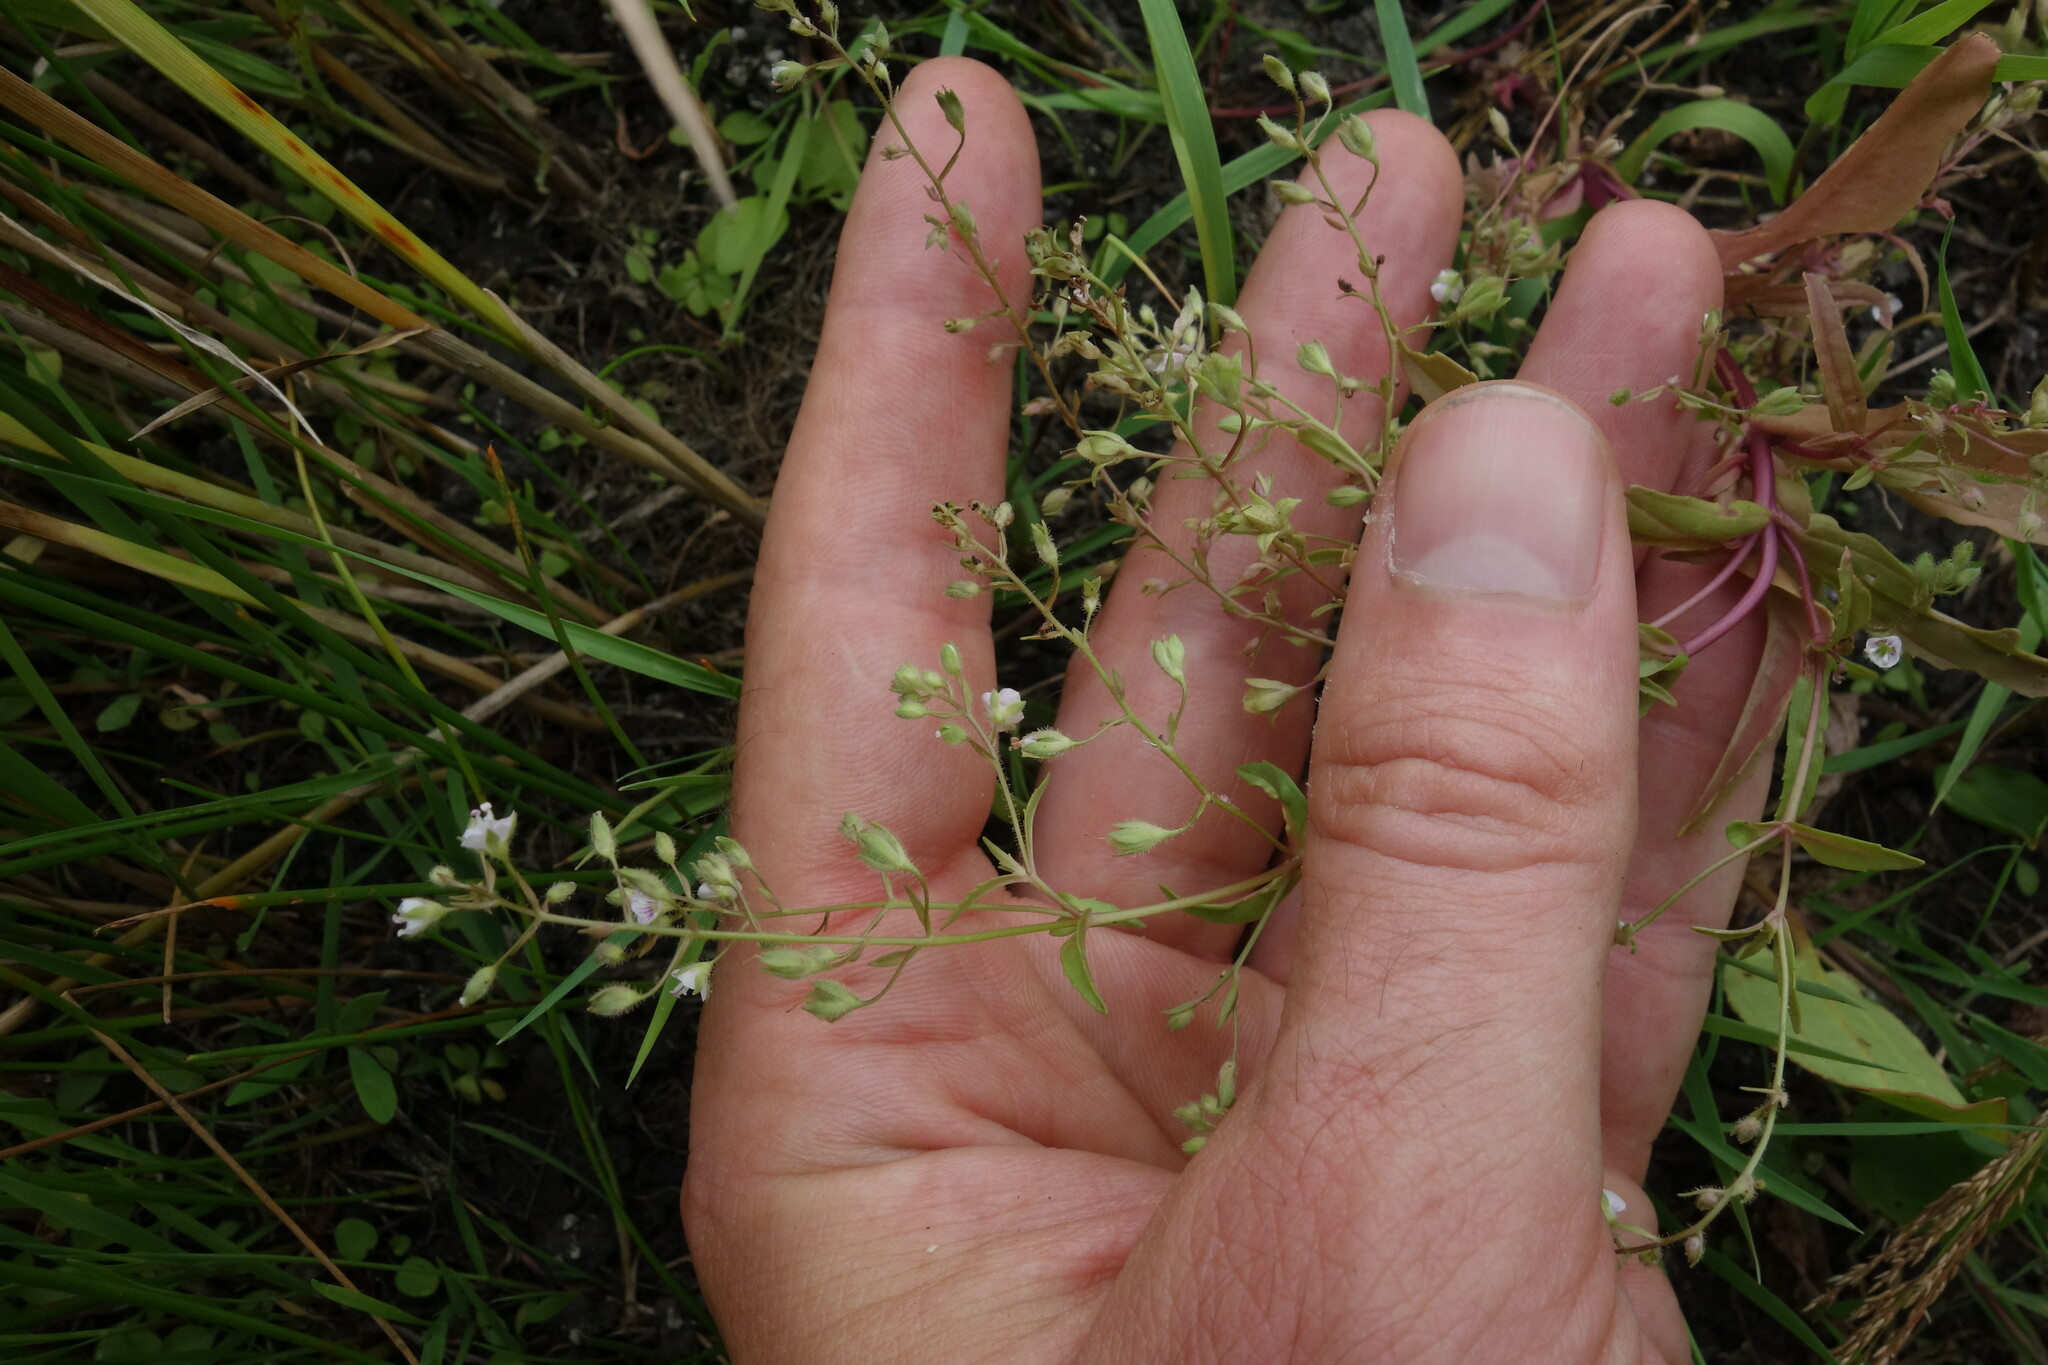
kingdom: Plantae
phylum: Tracheophyta
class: Magnoliopsida
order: Lamiales
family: Plantaginaceae
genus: Veronica
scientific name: Veronica anagallis-aquatica
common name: Water speedwell
